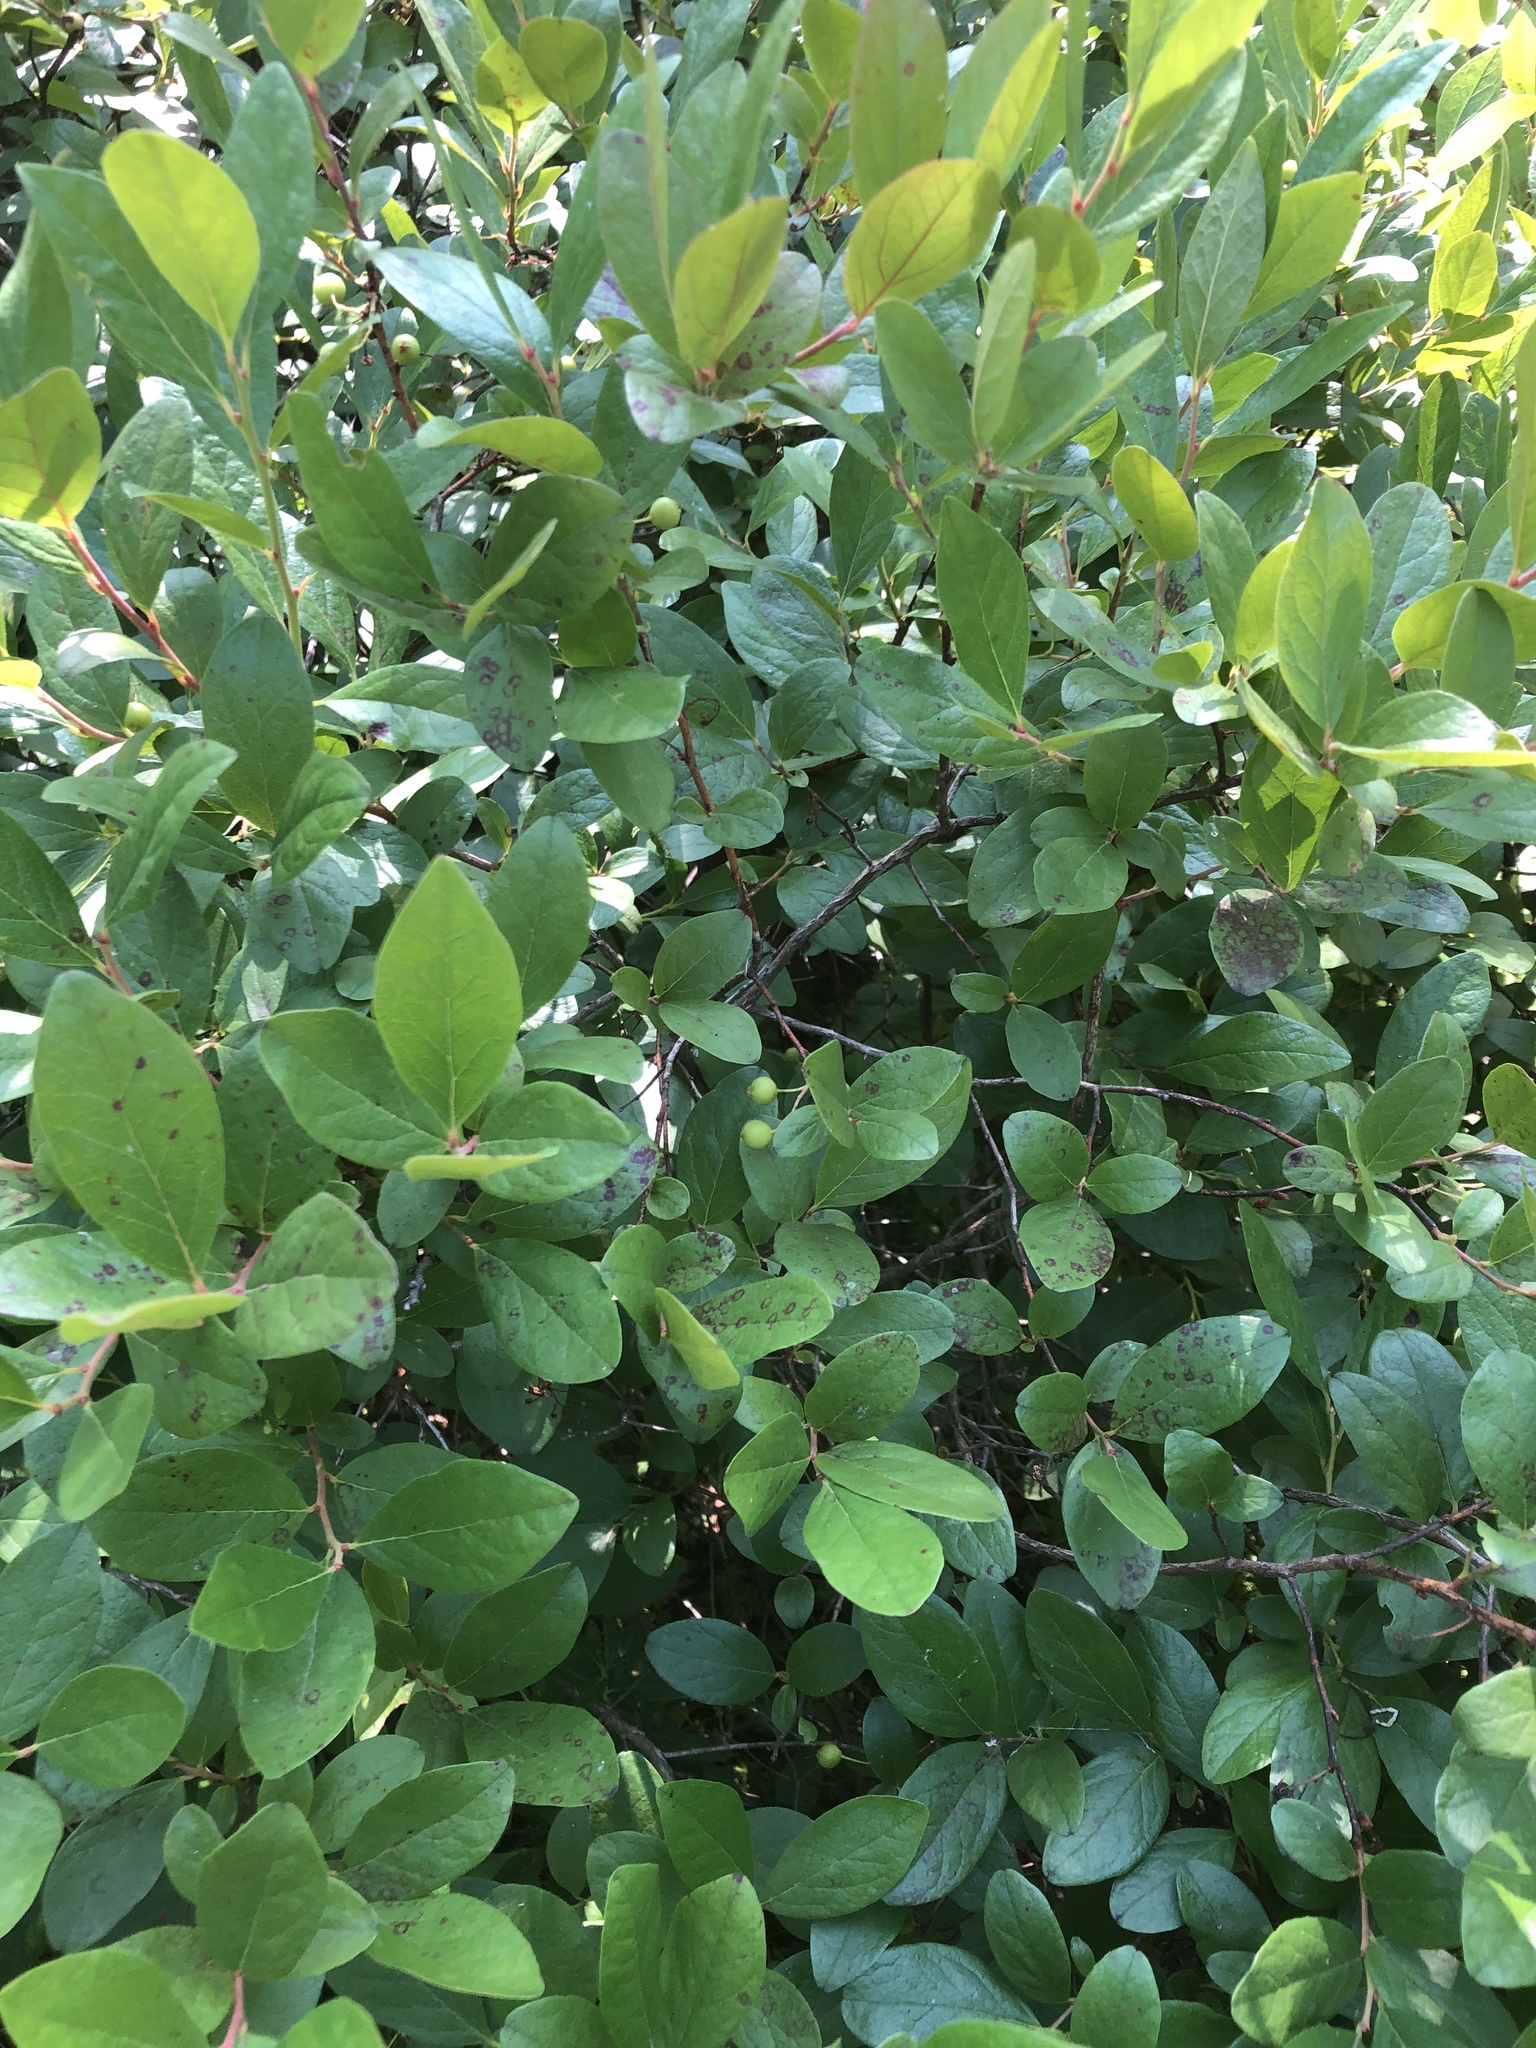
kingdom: Plantae
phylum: Tracheophyta
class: Magnoliopsida
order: Ericales
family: Ericaceae
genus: Gaylussacia
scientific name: Gaylussacia baccata
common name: Black huckleberry
